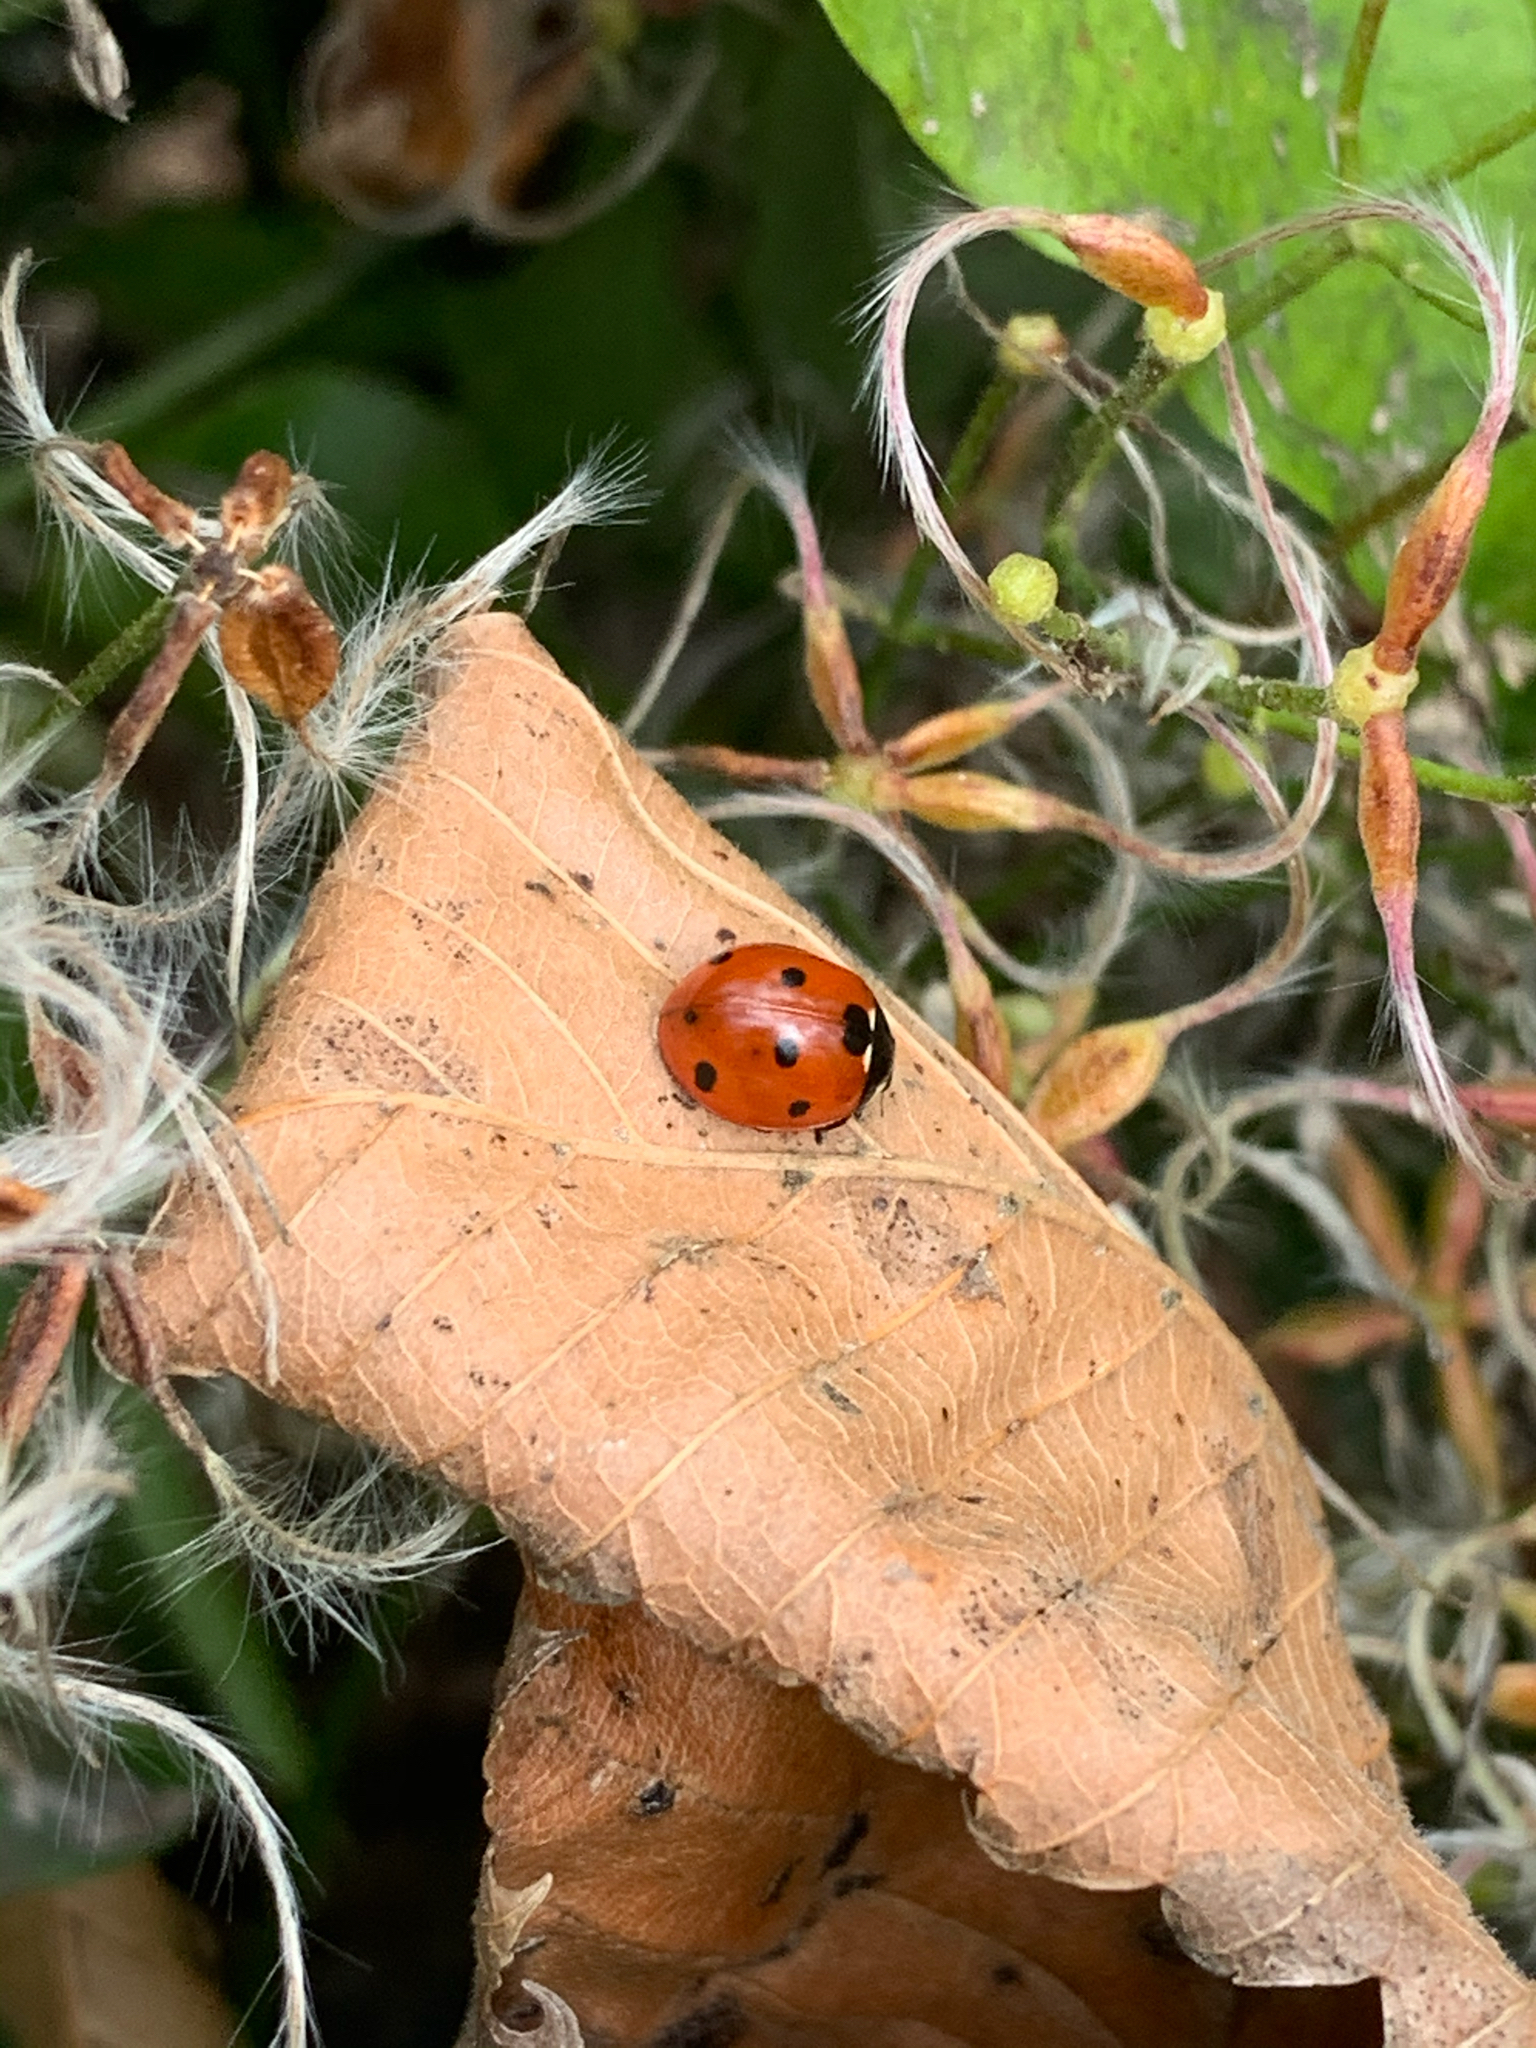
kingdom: Animalia
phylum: Arthropoda
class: Insecta
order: Coleoptera
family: Coccinellidae
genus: Coccinella
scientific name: Coccinella septempunctata
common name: Sevenspotted lady beetle
